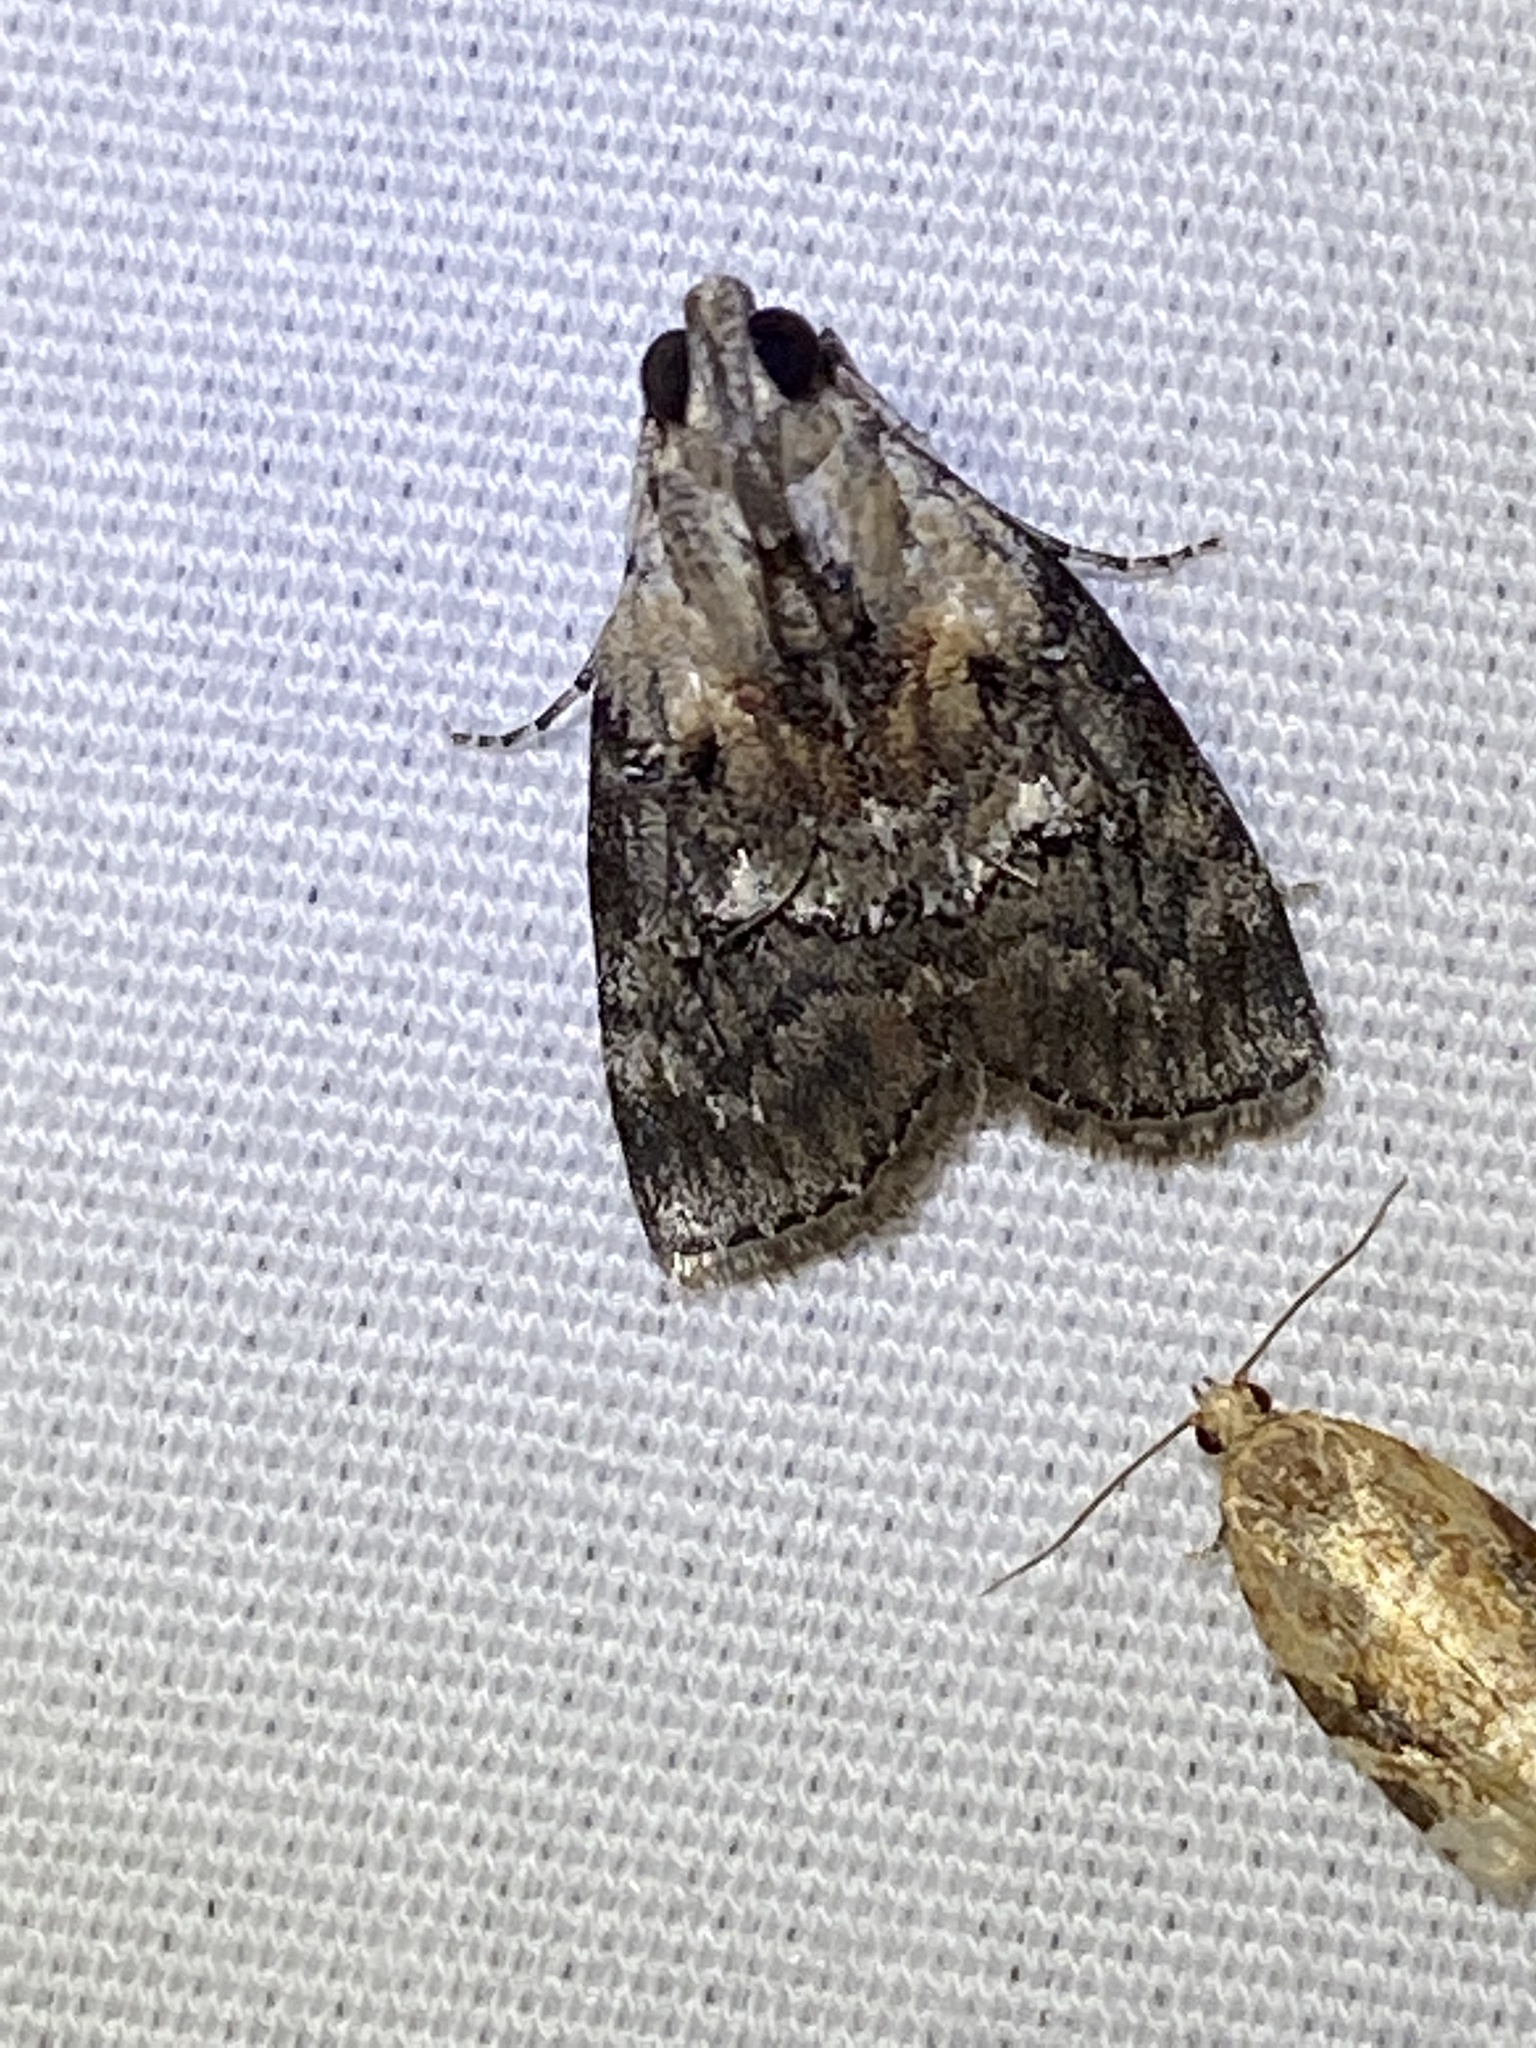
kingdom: Animalia
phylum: Arthropoda
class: Insecta
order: Lepidoptera
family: Pyralidae
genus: Pococera
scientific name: Pococera expandens
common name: Striped oak webworm moth
